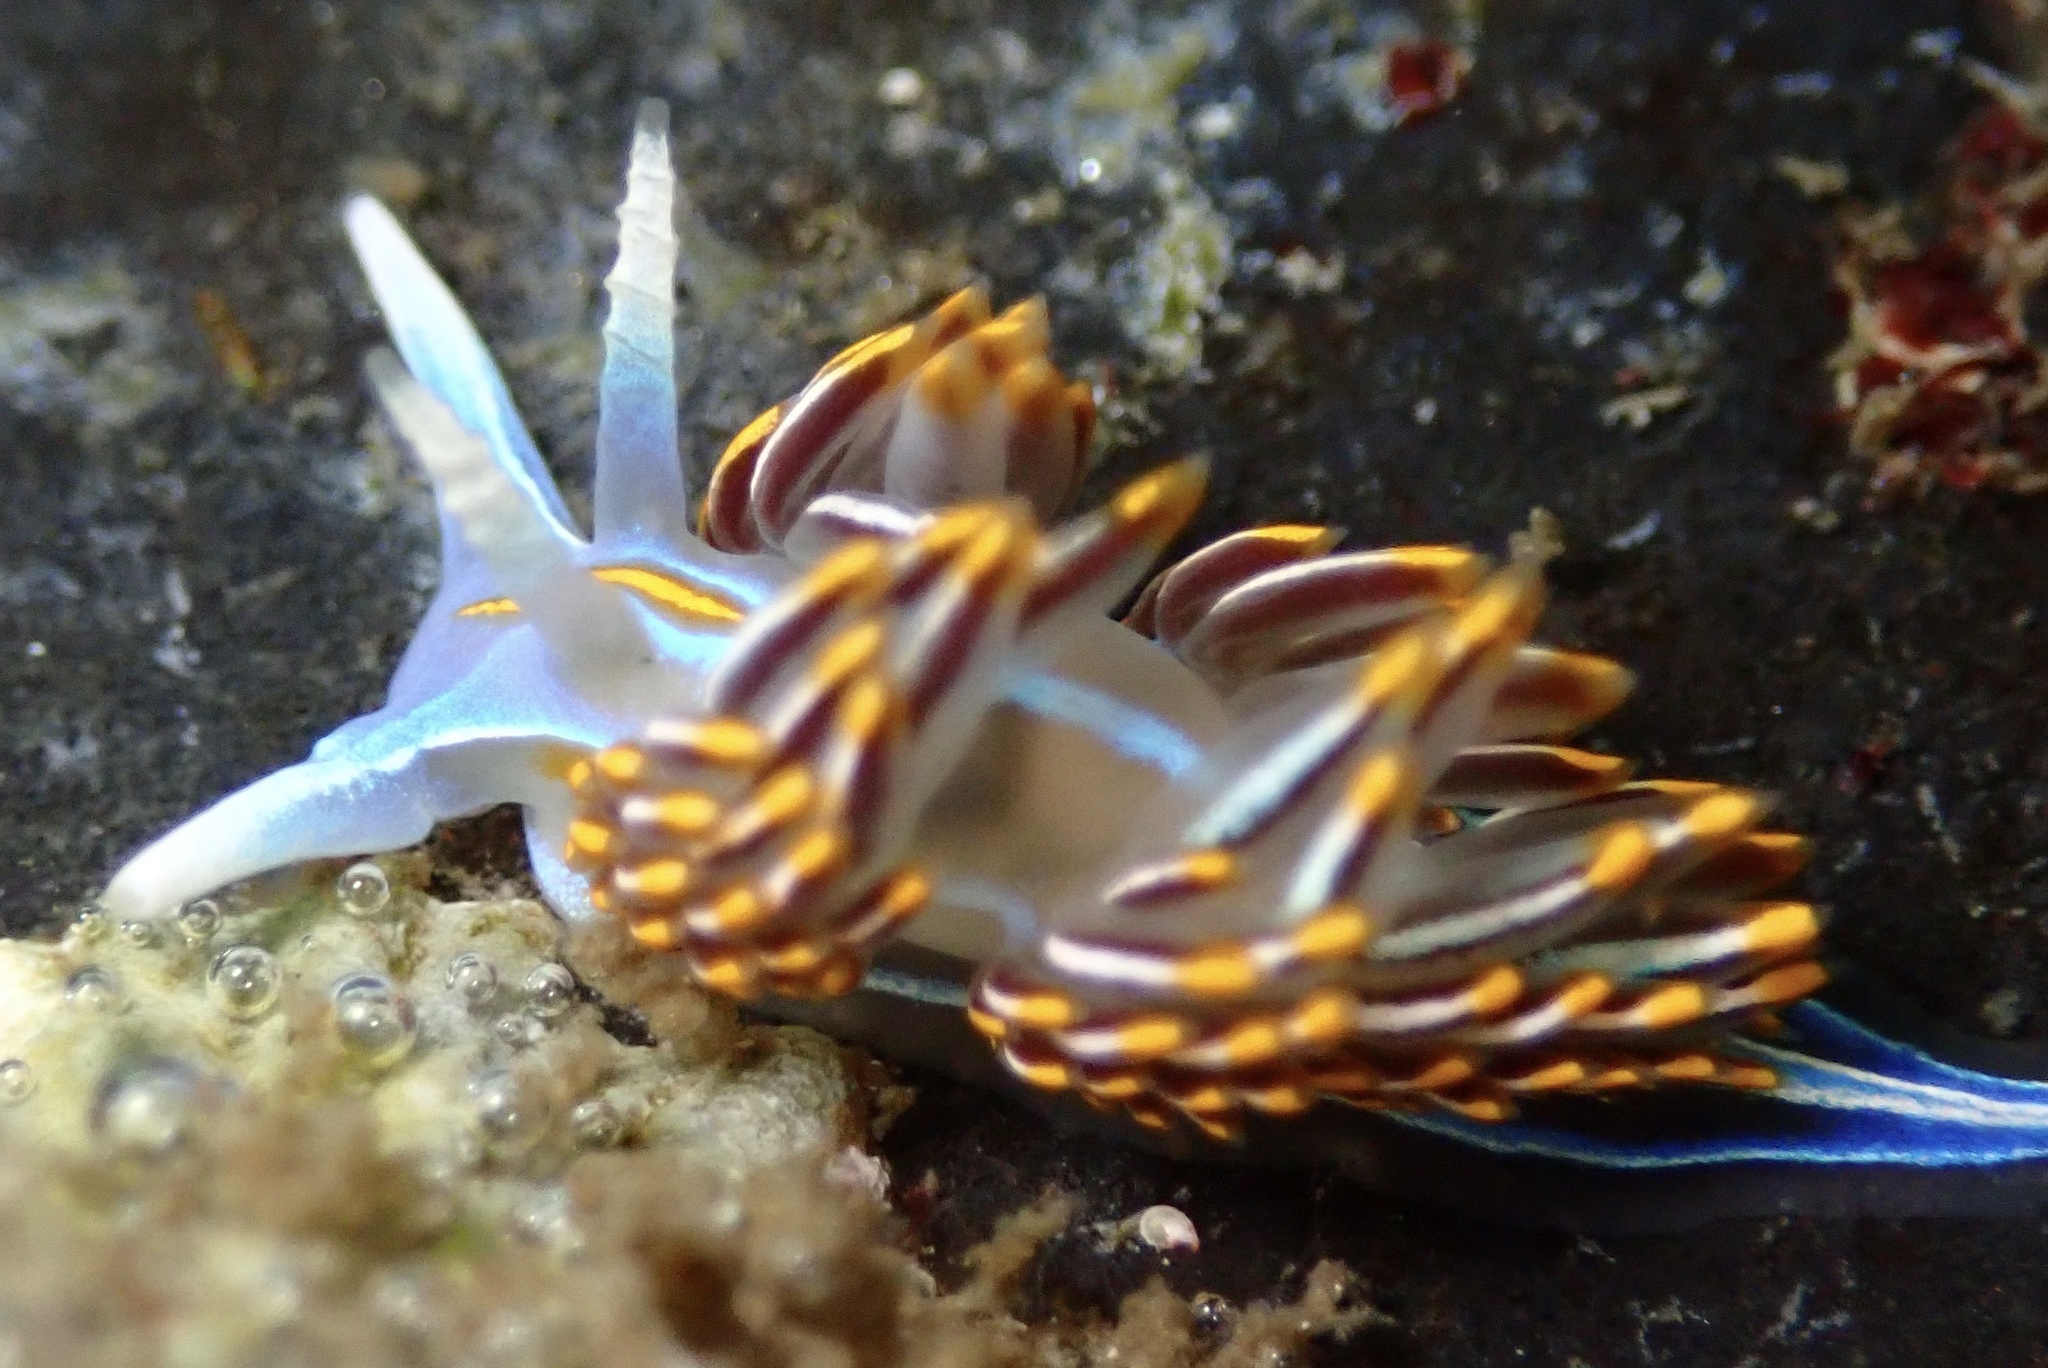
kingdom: Animalia
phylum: Mollusca
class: Gastropoda
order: Nudibranchia
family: Myrrhinidae
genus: Hermissenda
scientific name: Hermissenda crassicornis
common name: Hermissenda
